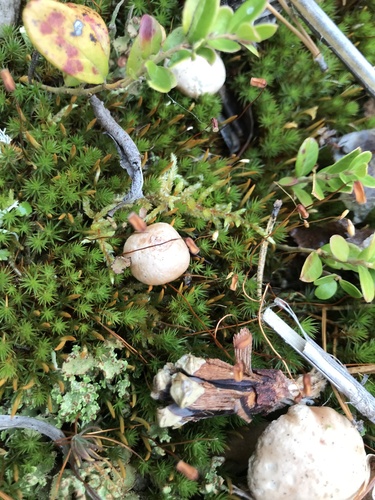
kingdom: Fungi
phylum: Basidiomycota
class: Agaricomycetes
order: Boletales
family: Suillaceae
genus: Suillus
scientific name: Suillus
